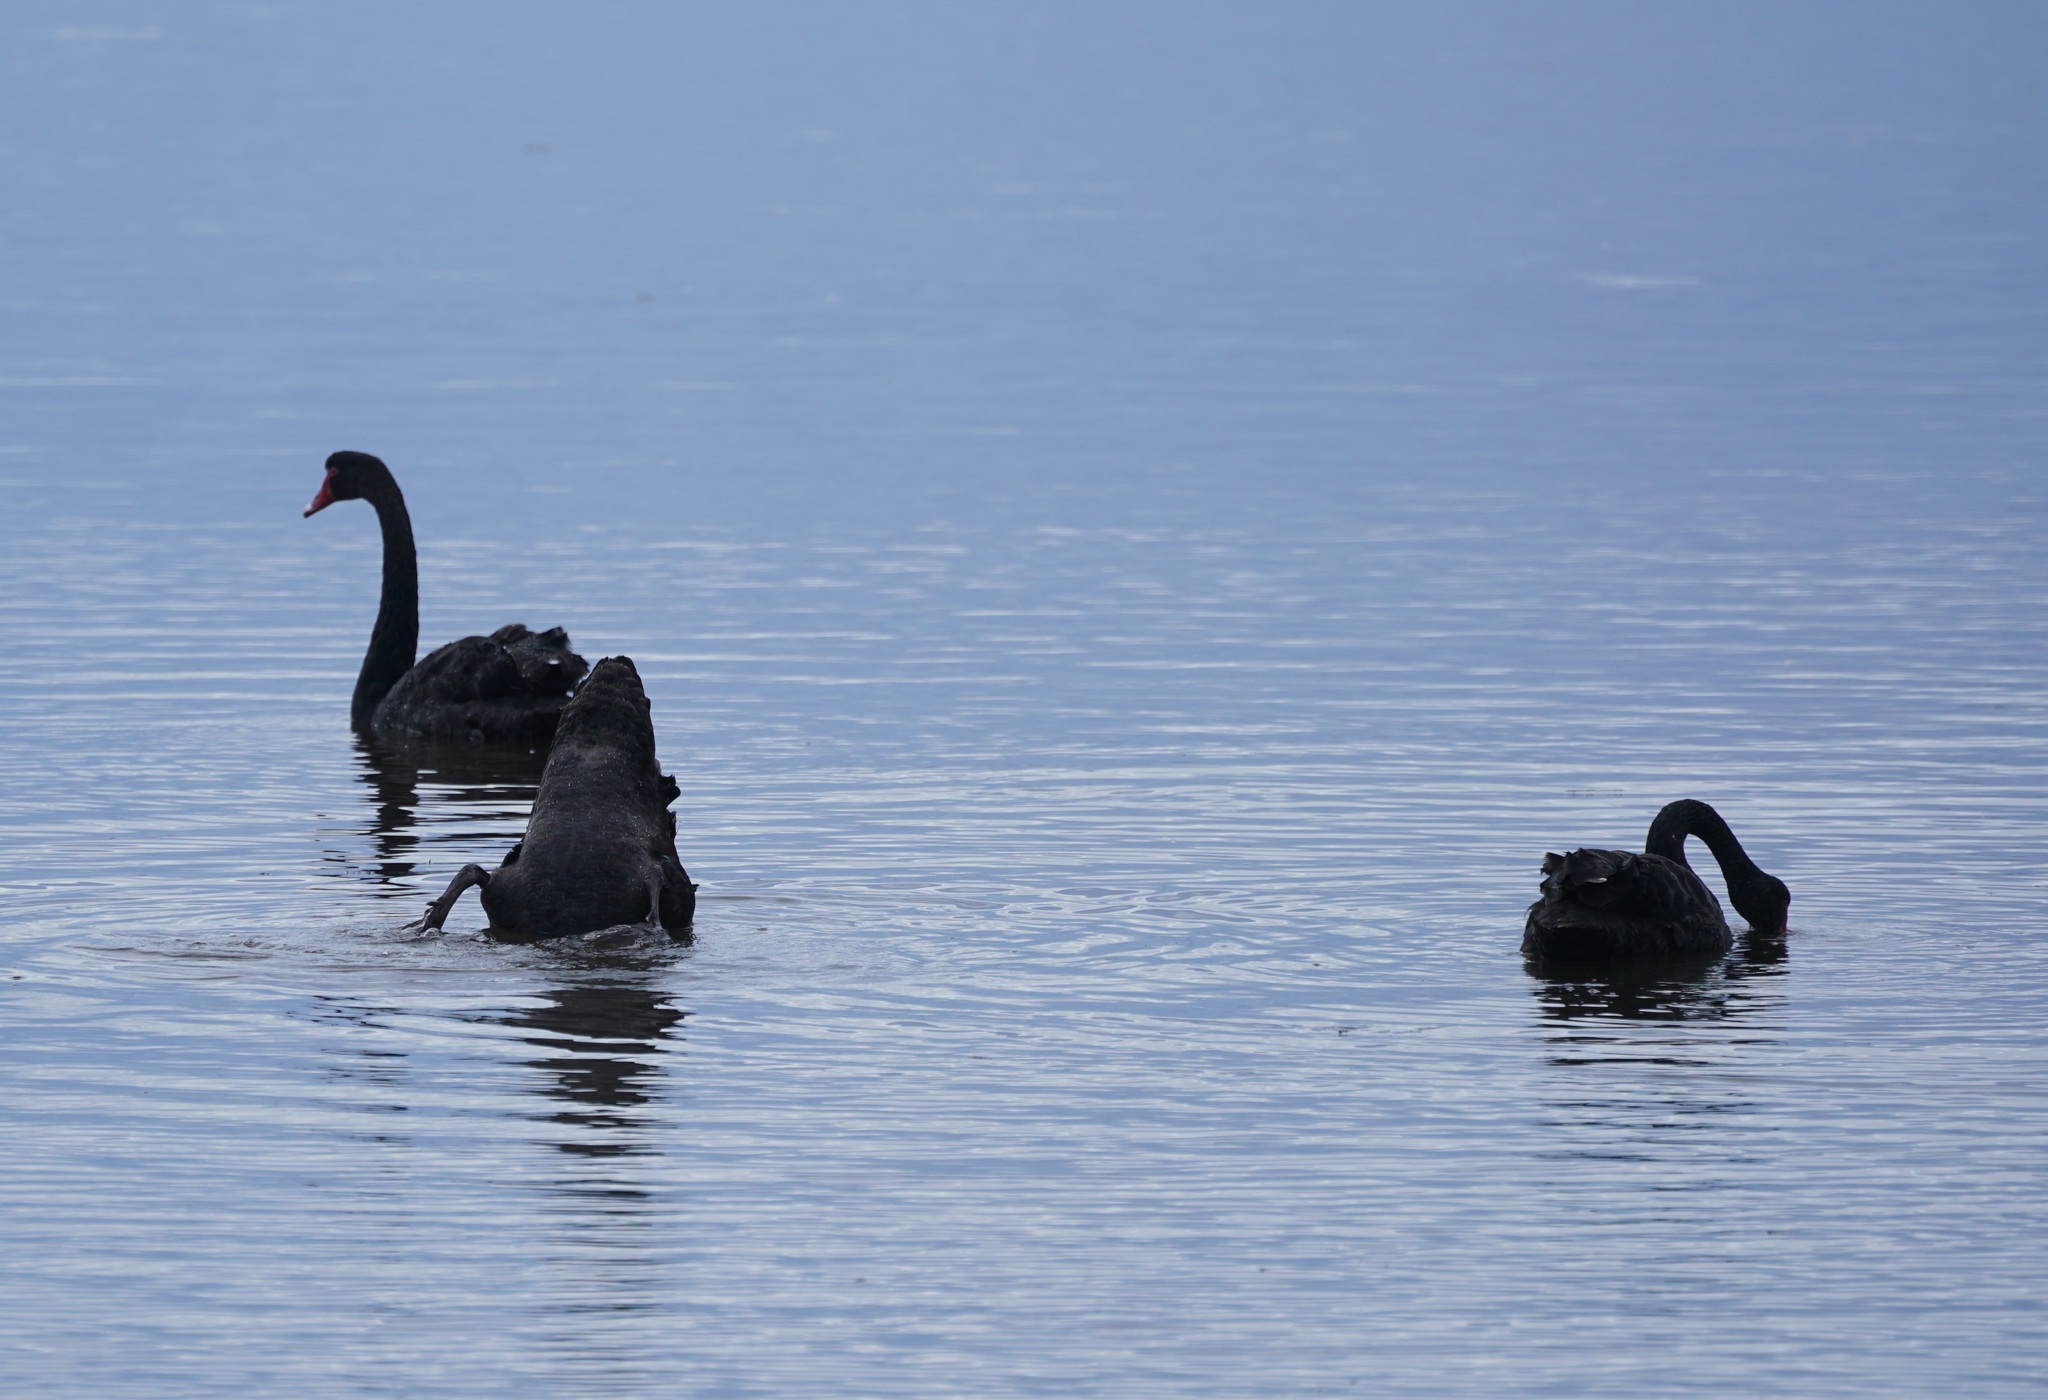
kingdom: Animalia
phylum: Chordata
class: Aves
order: Anseriformes
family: Anatidae
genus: Cygnus
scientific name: Cygnus atratus
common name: Black swan
